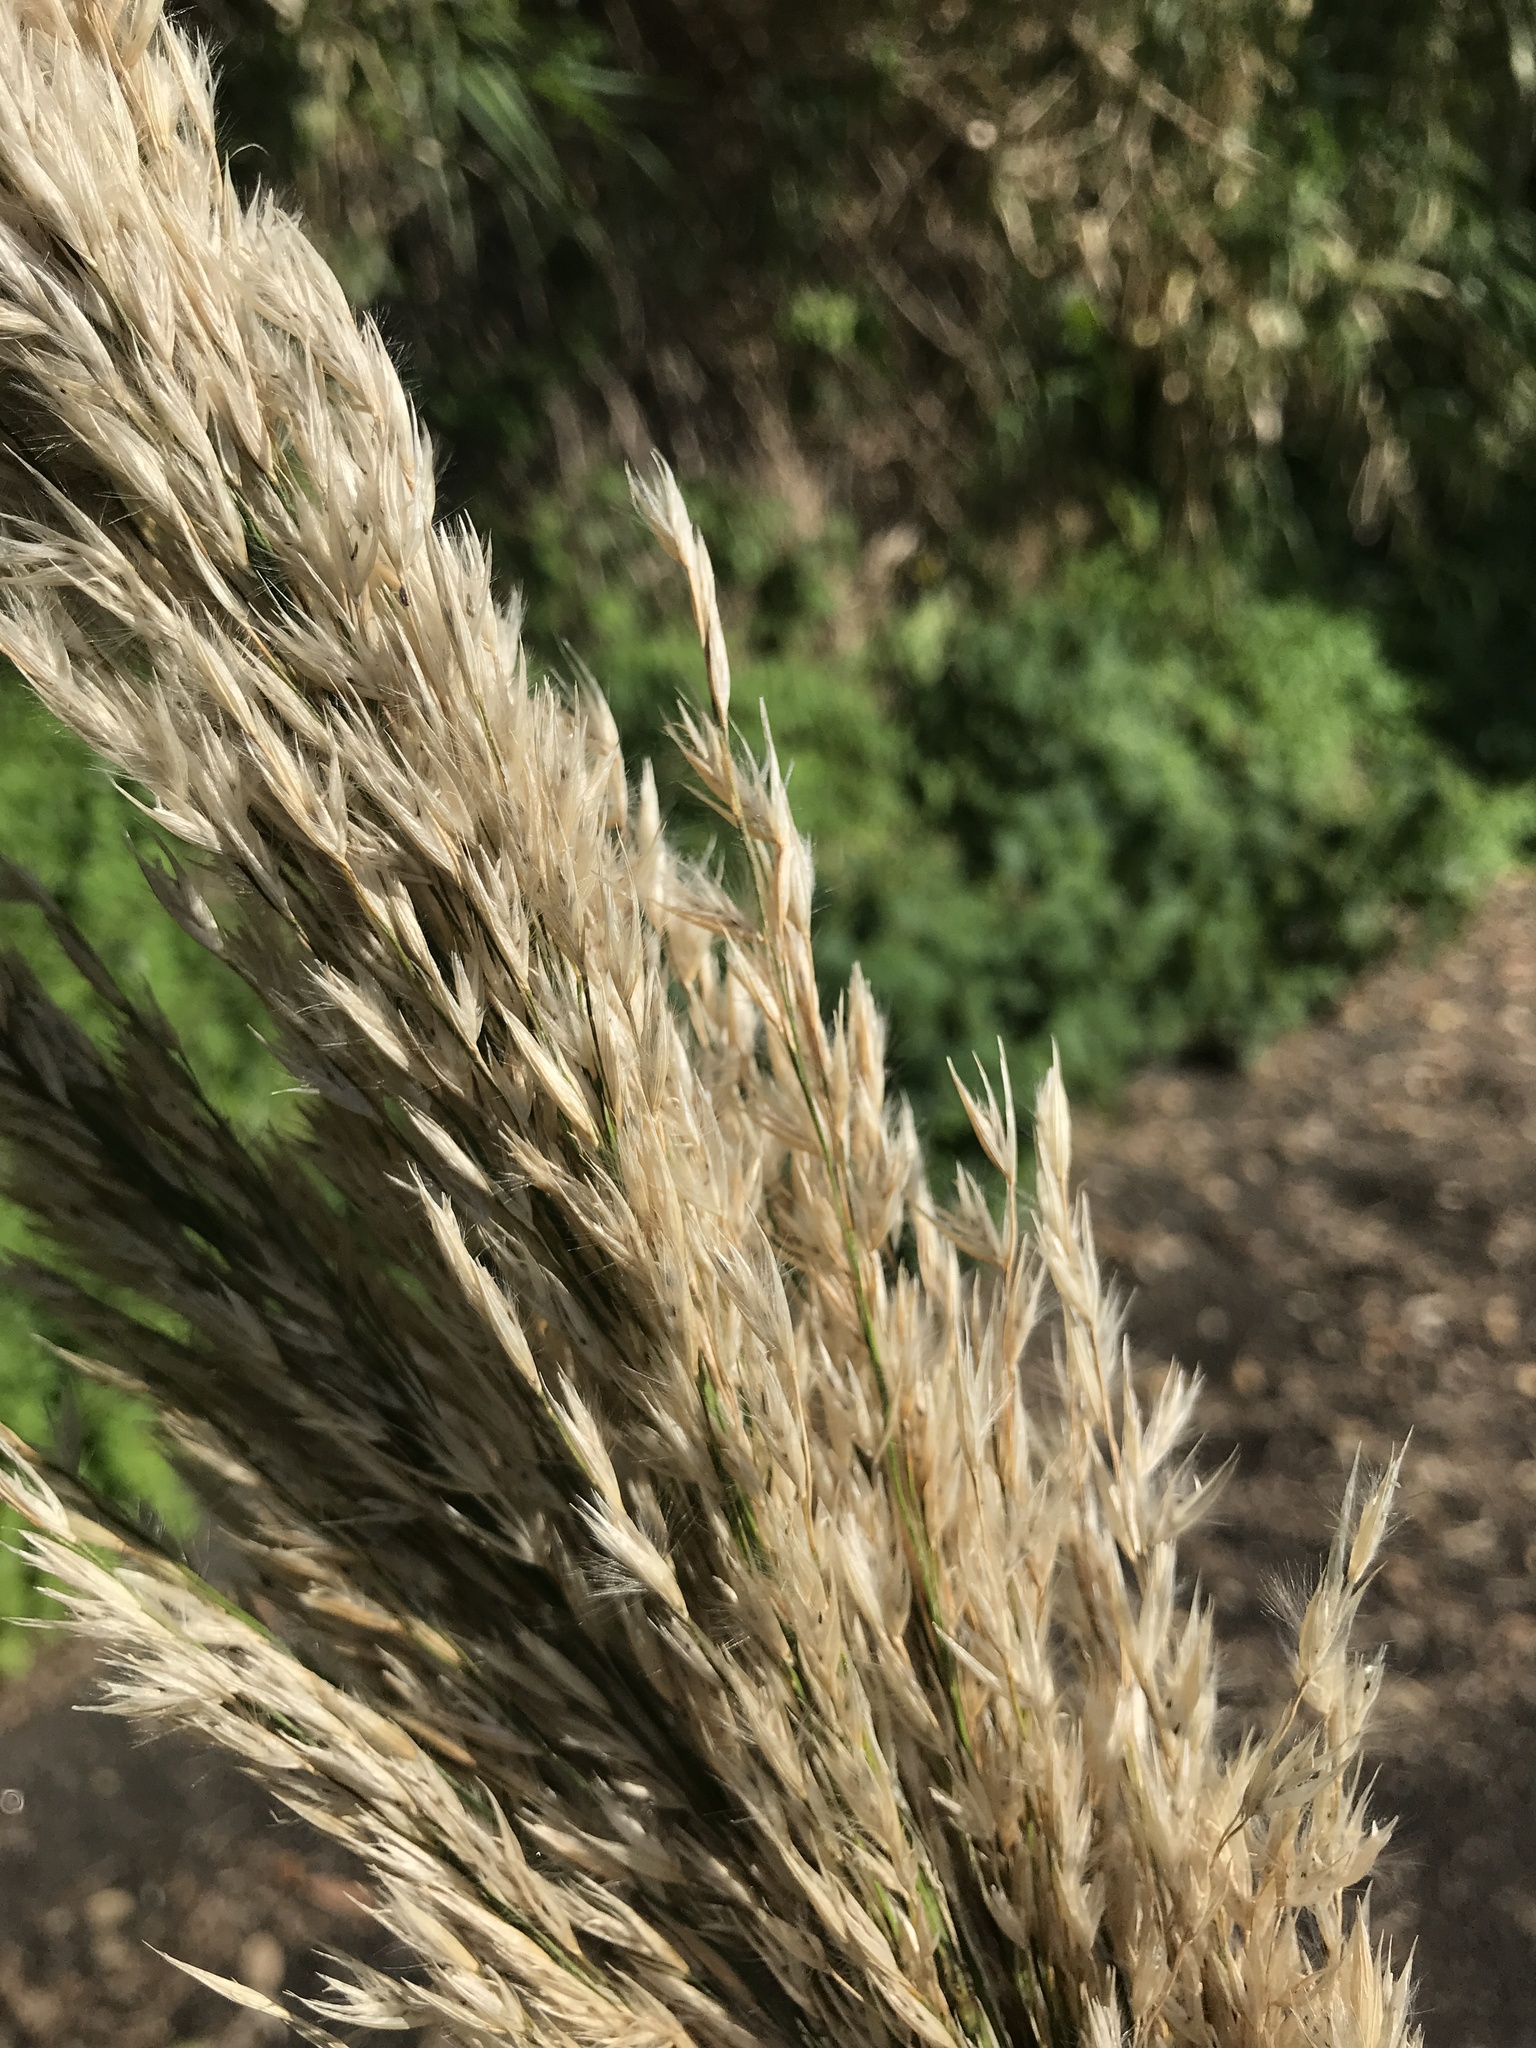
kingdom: Plantae
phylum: Tracheophyta
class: Liliopsida
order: Poales
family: Poaceae
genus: Arundo
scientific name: Arundo donax
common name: Giant reed
